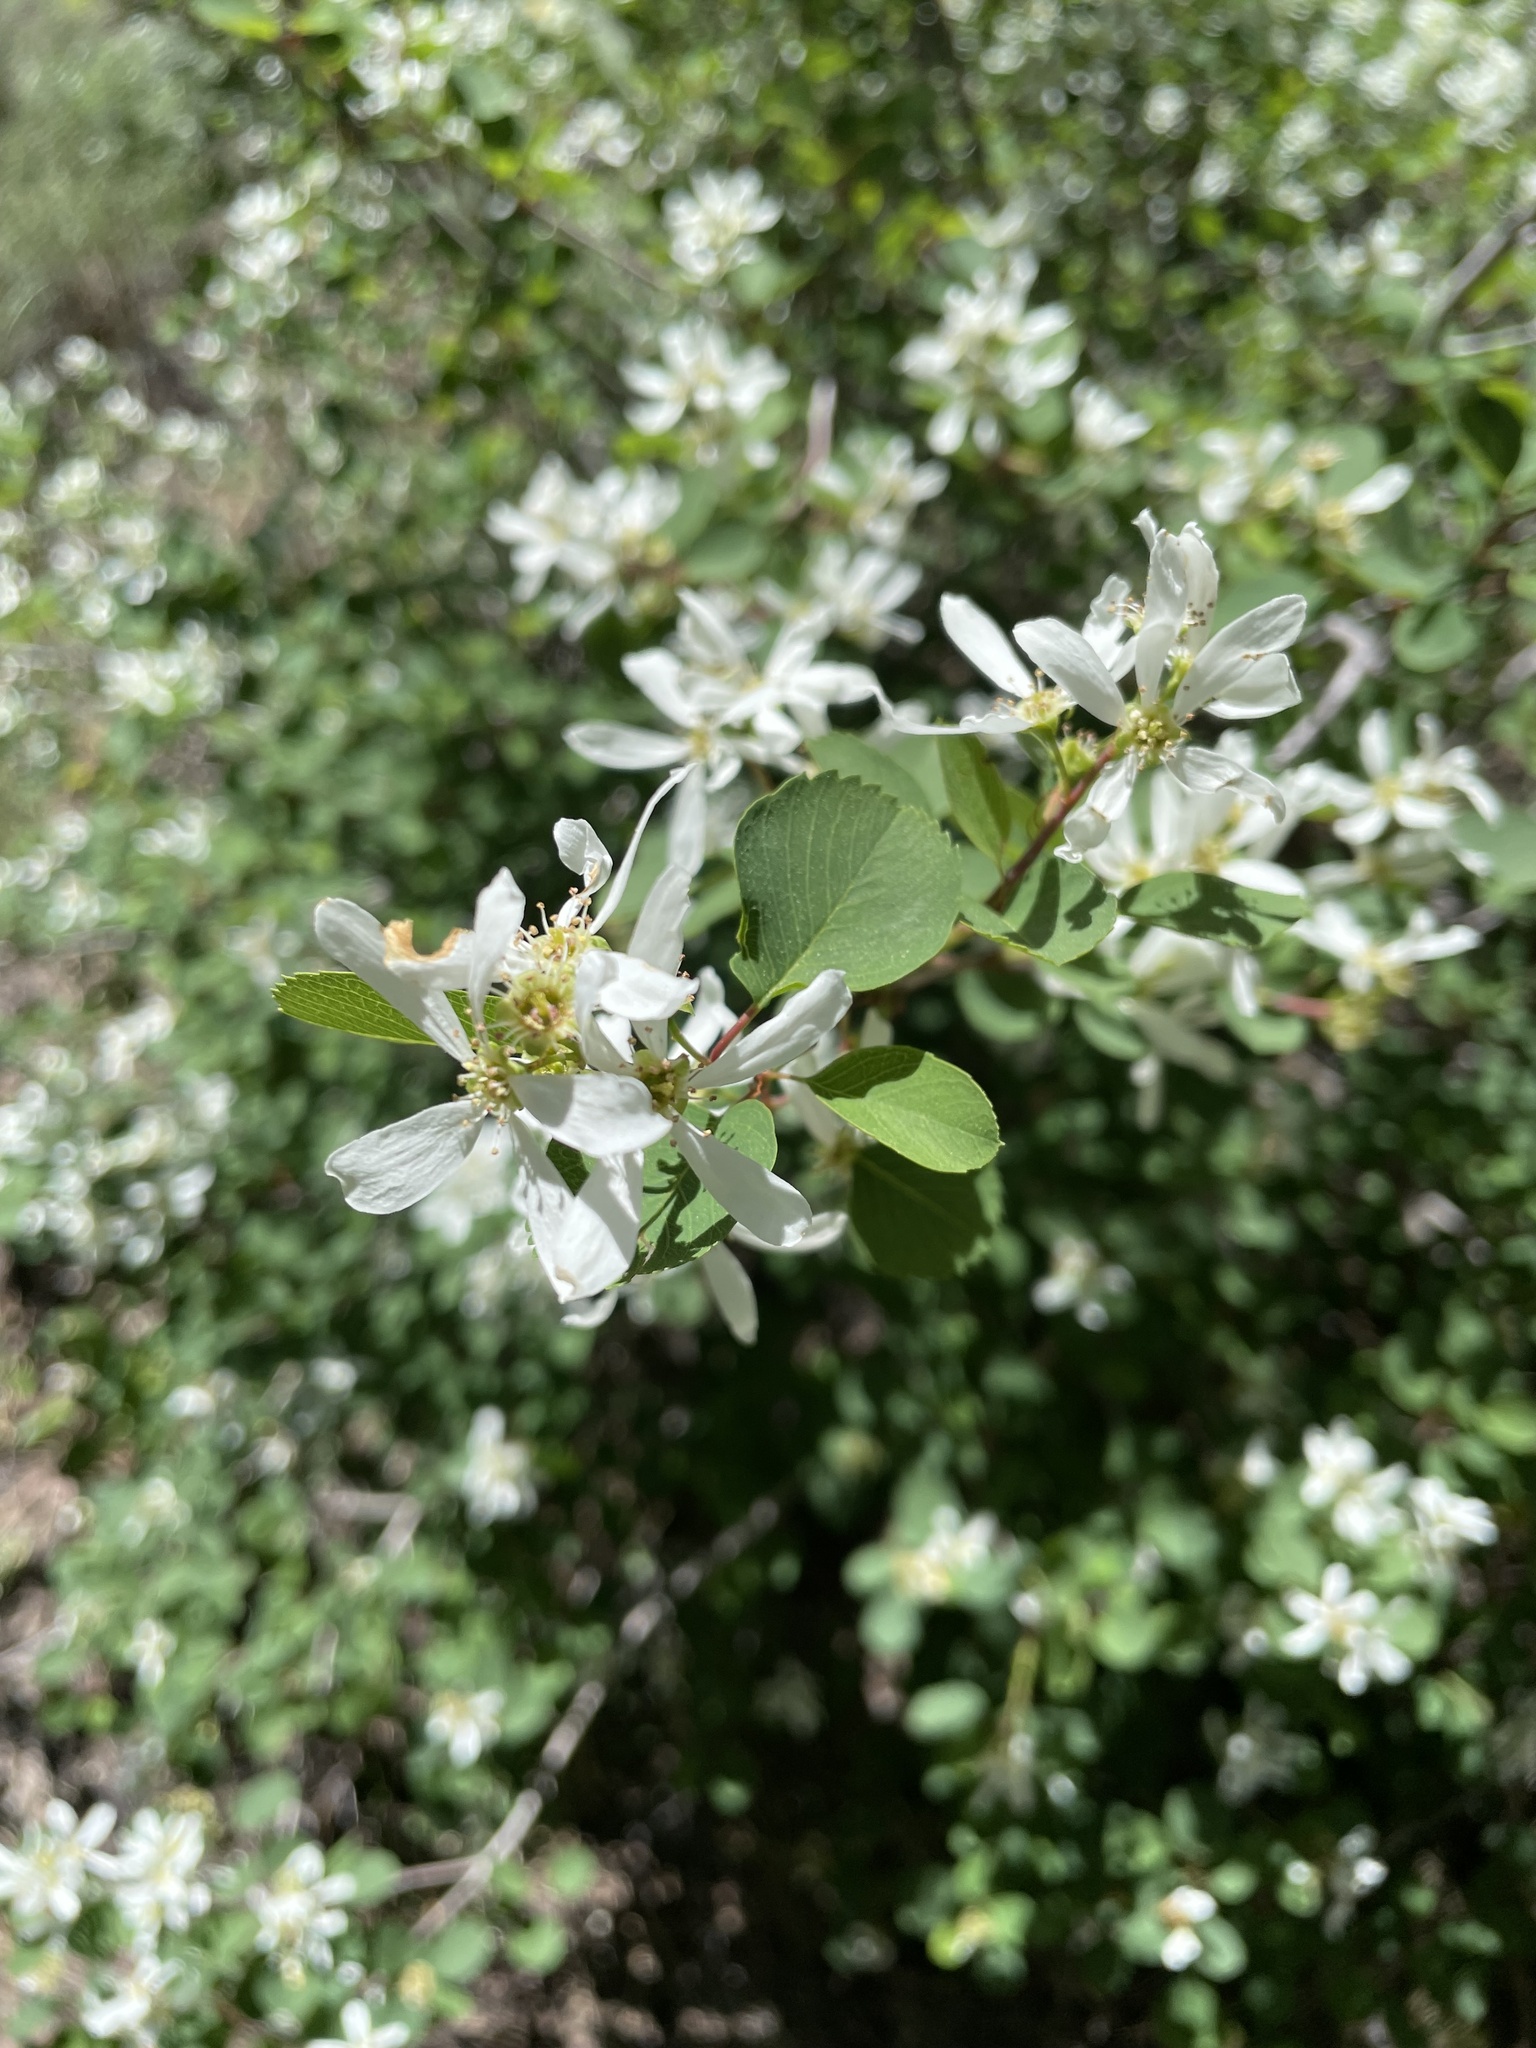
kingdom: Plantae
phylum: Tracheophyta
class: Magnoliopsida
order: Rosales
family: Rosaceae
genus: Amelanchier
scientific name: Amelanchier alnifolia
